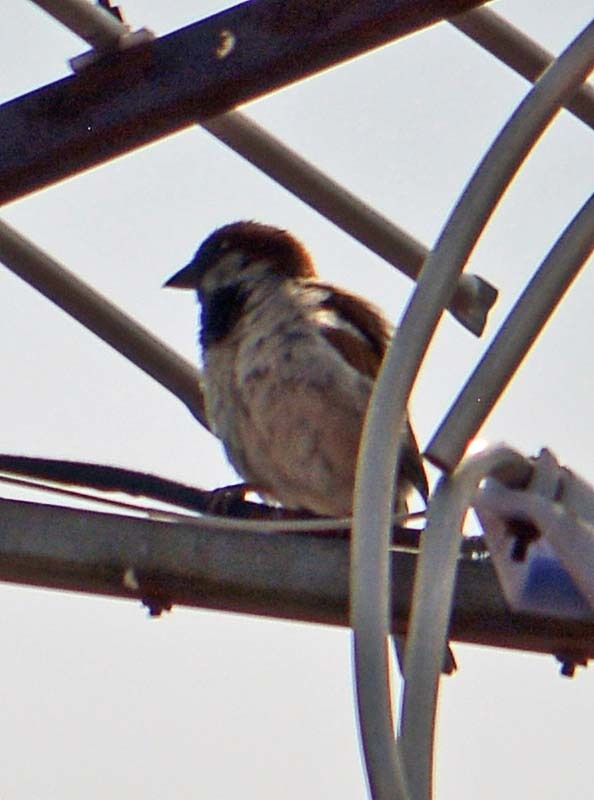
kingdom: Animalia
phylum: Chordata
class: Aves
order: Passeriformes
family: Passeridae
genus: Passer
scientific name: Passer domesticus
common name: House sparrow
